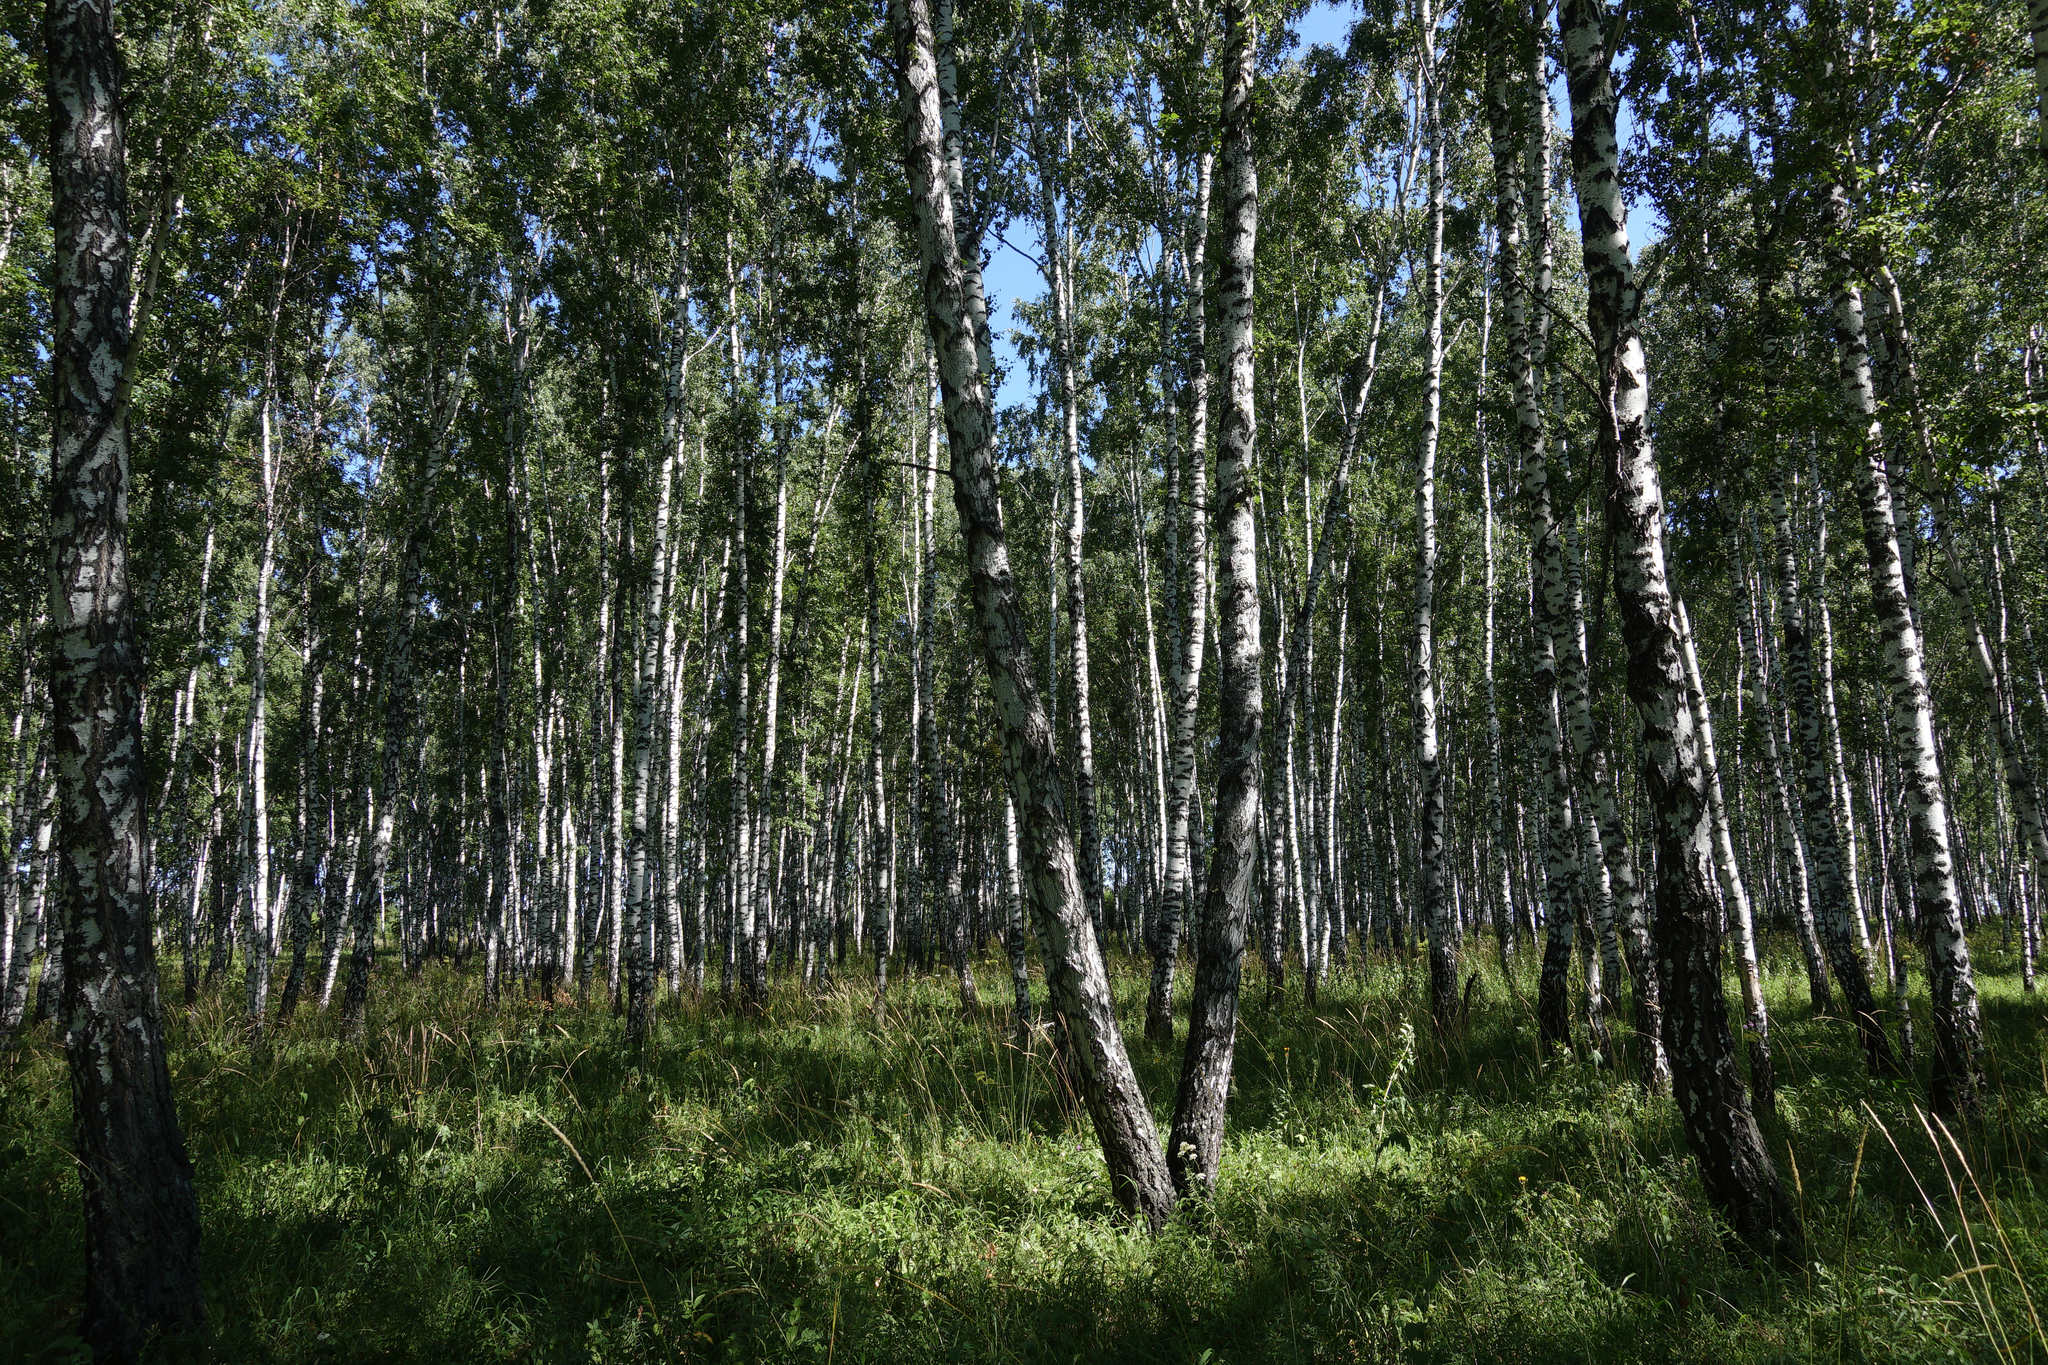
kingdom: Plantae
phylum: Tracheophyta
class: Magnoliopsida
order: Fagales
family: Betulaceae
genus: Betula
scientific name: Betula pendula
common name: Silver birch
